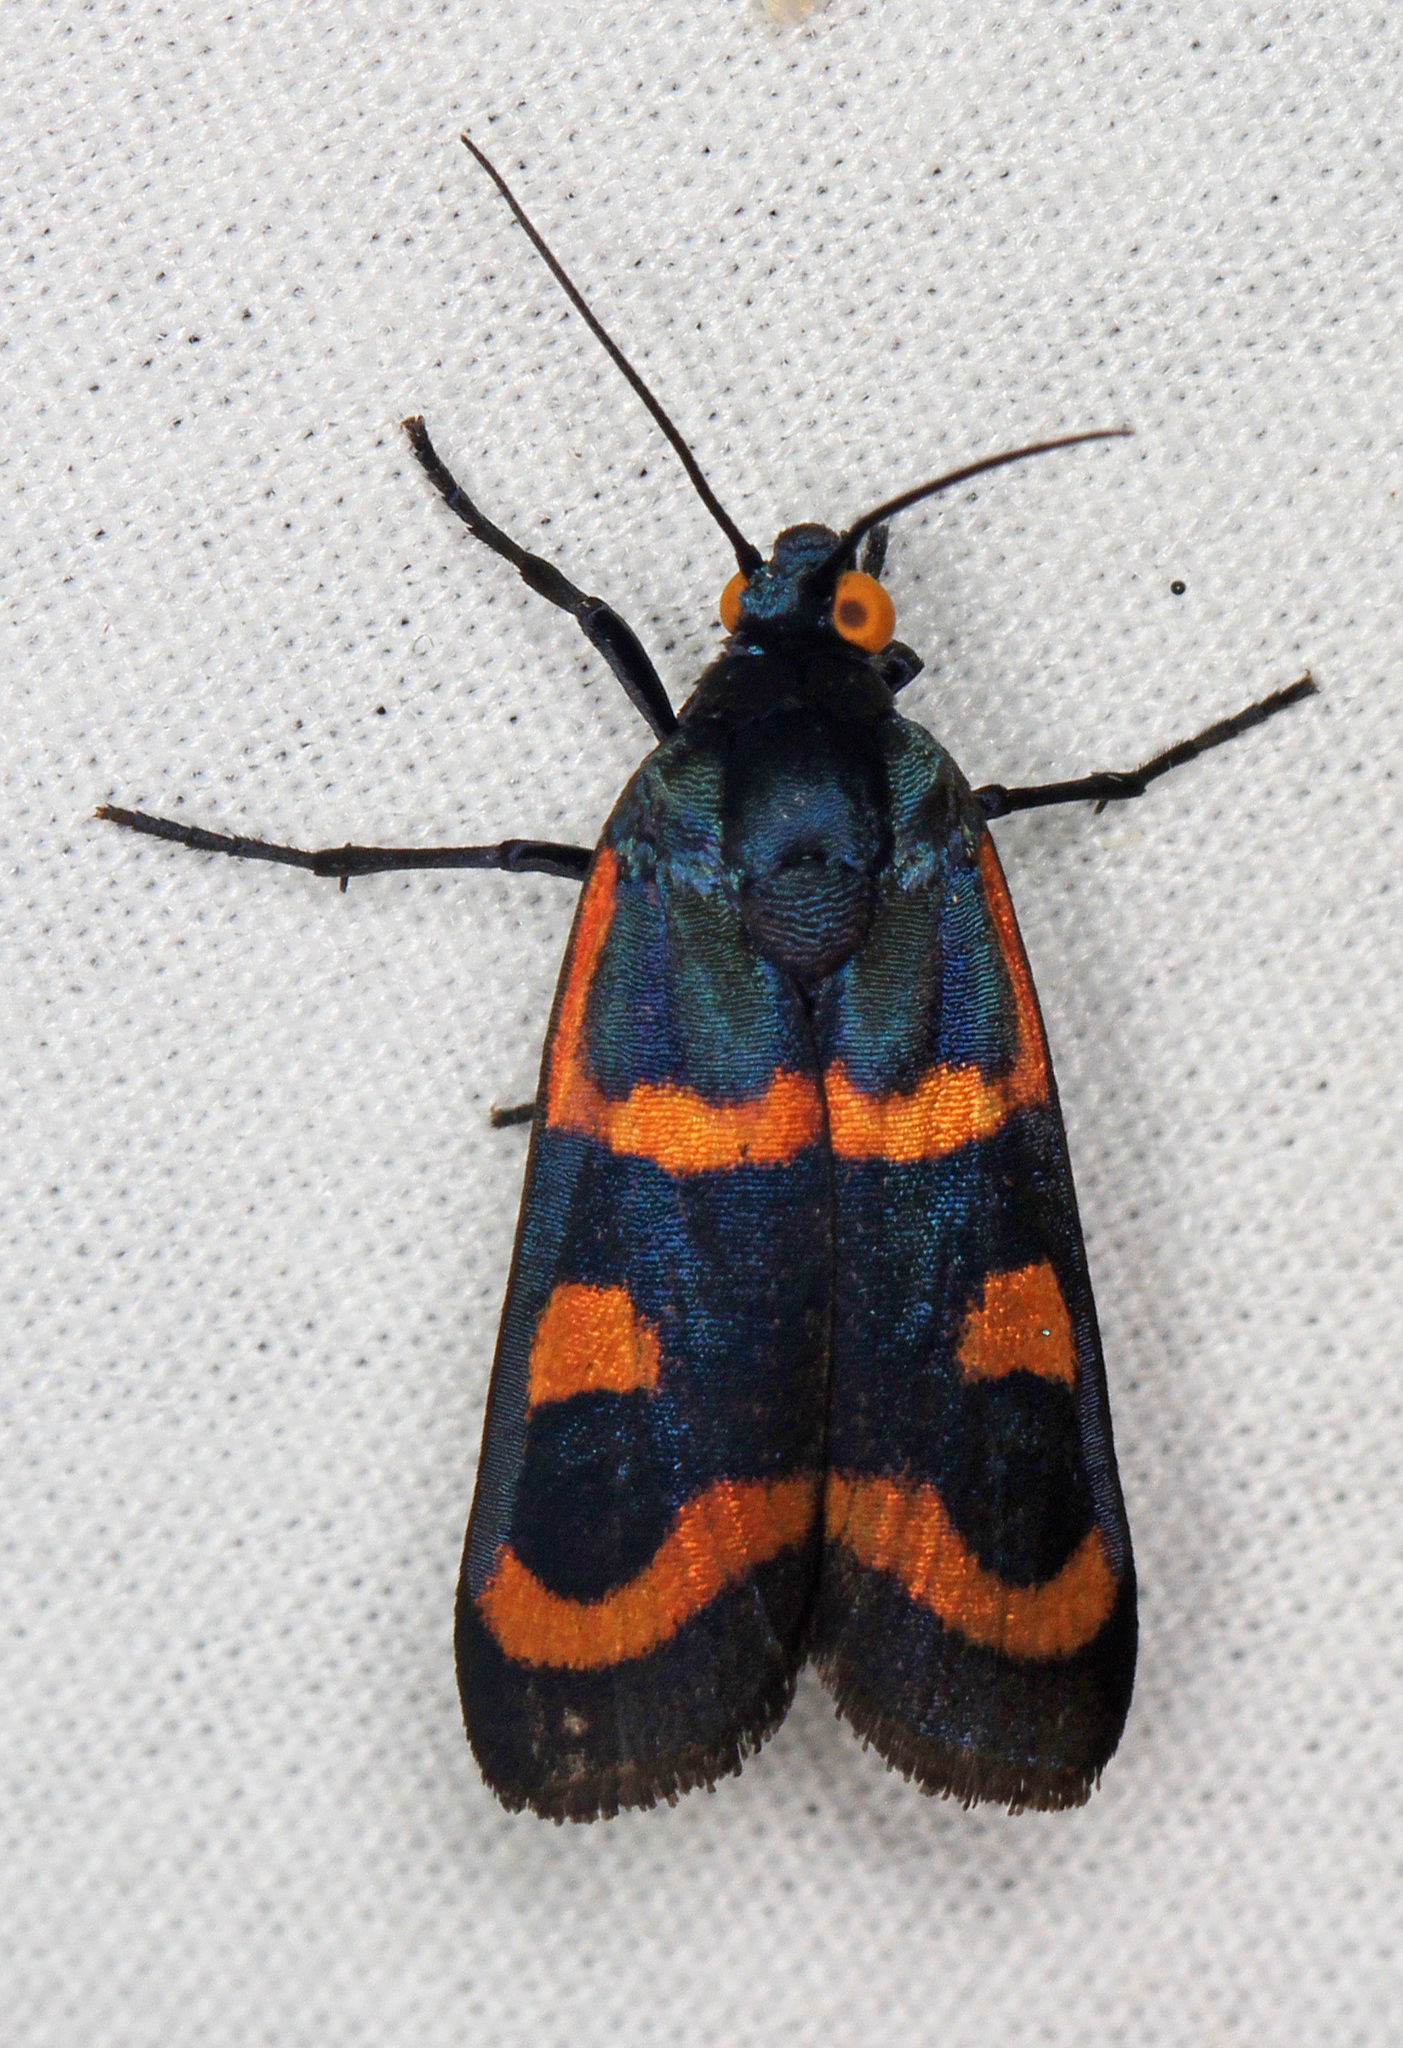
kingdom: Animalia
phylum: Arthropoda
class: Insecta
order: Lepidoptera
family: Noctuidae
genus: Cydosia
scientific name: Cydosia aurivitta
